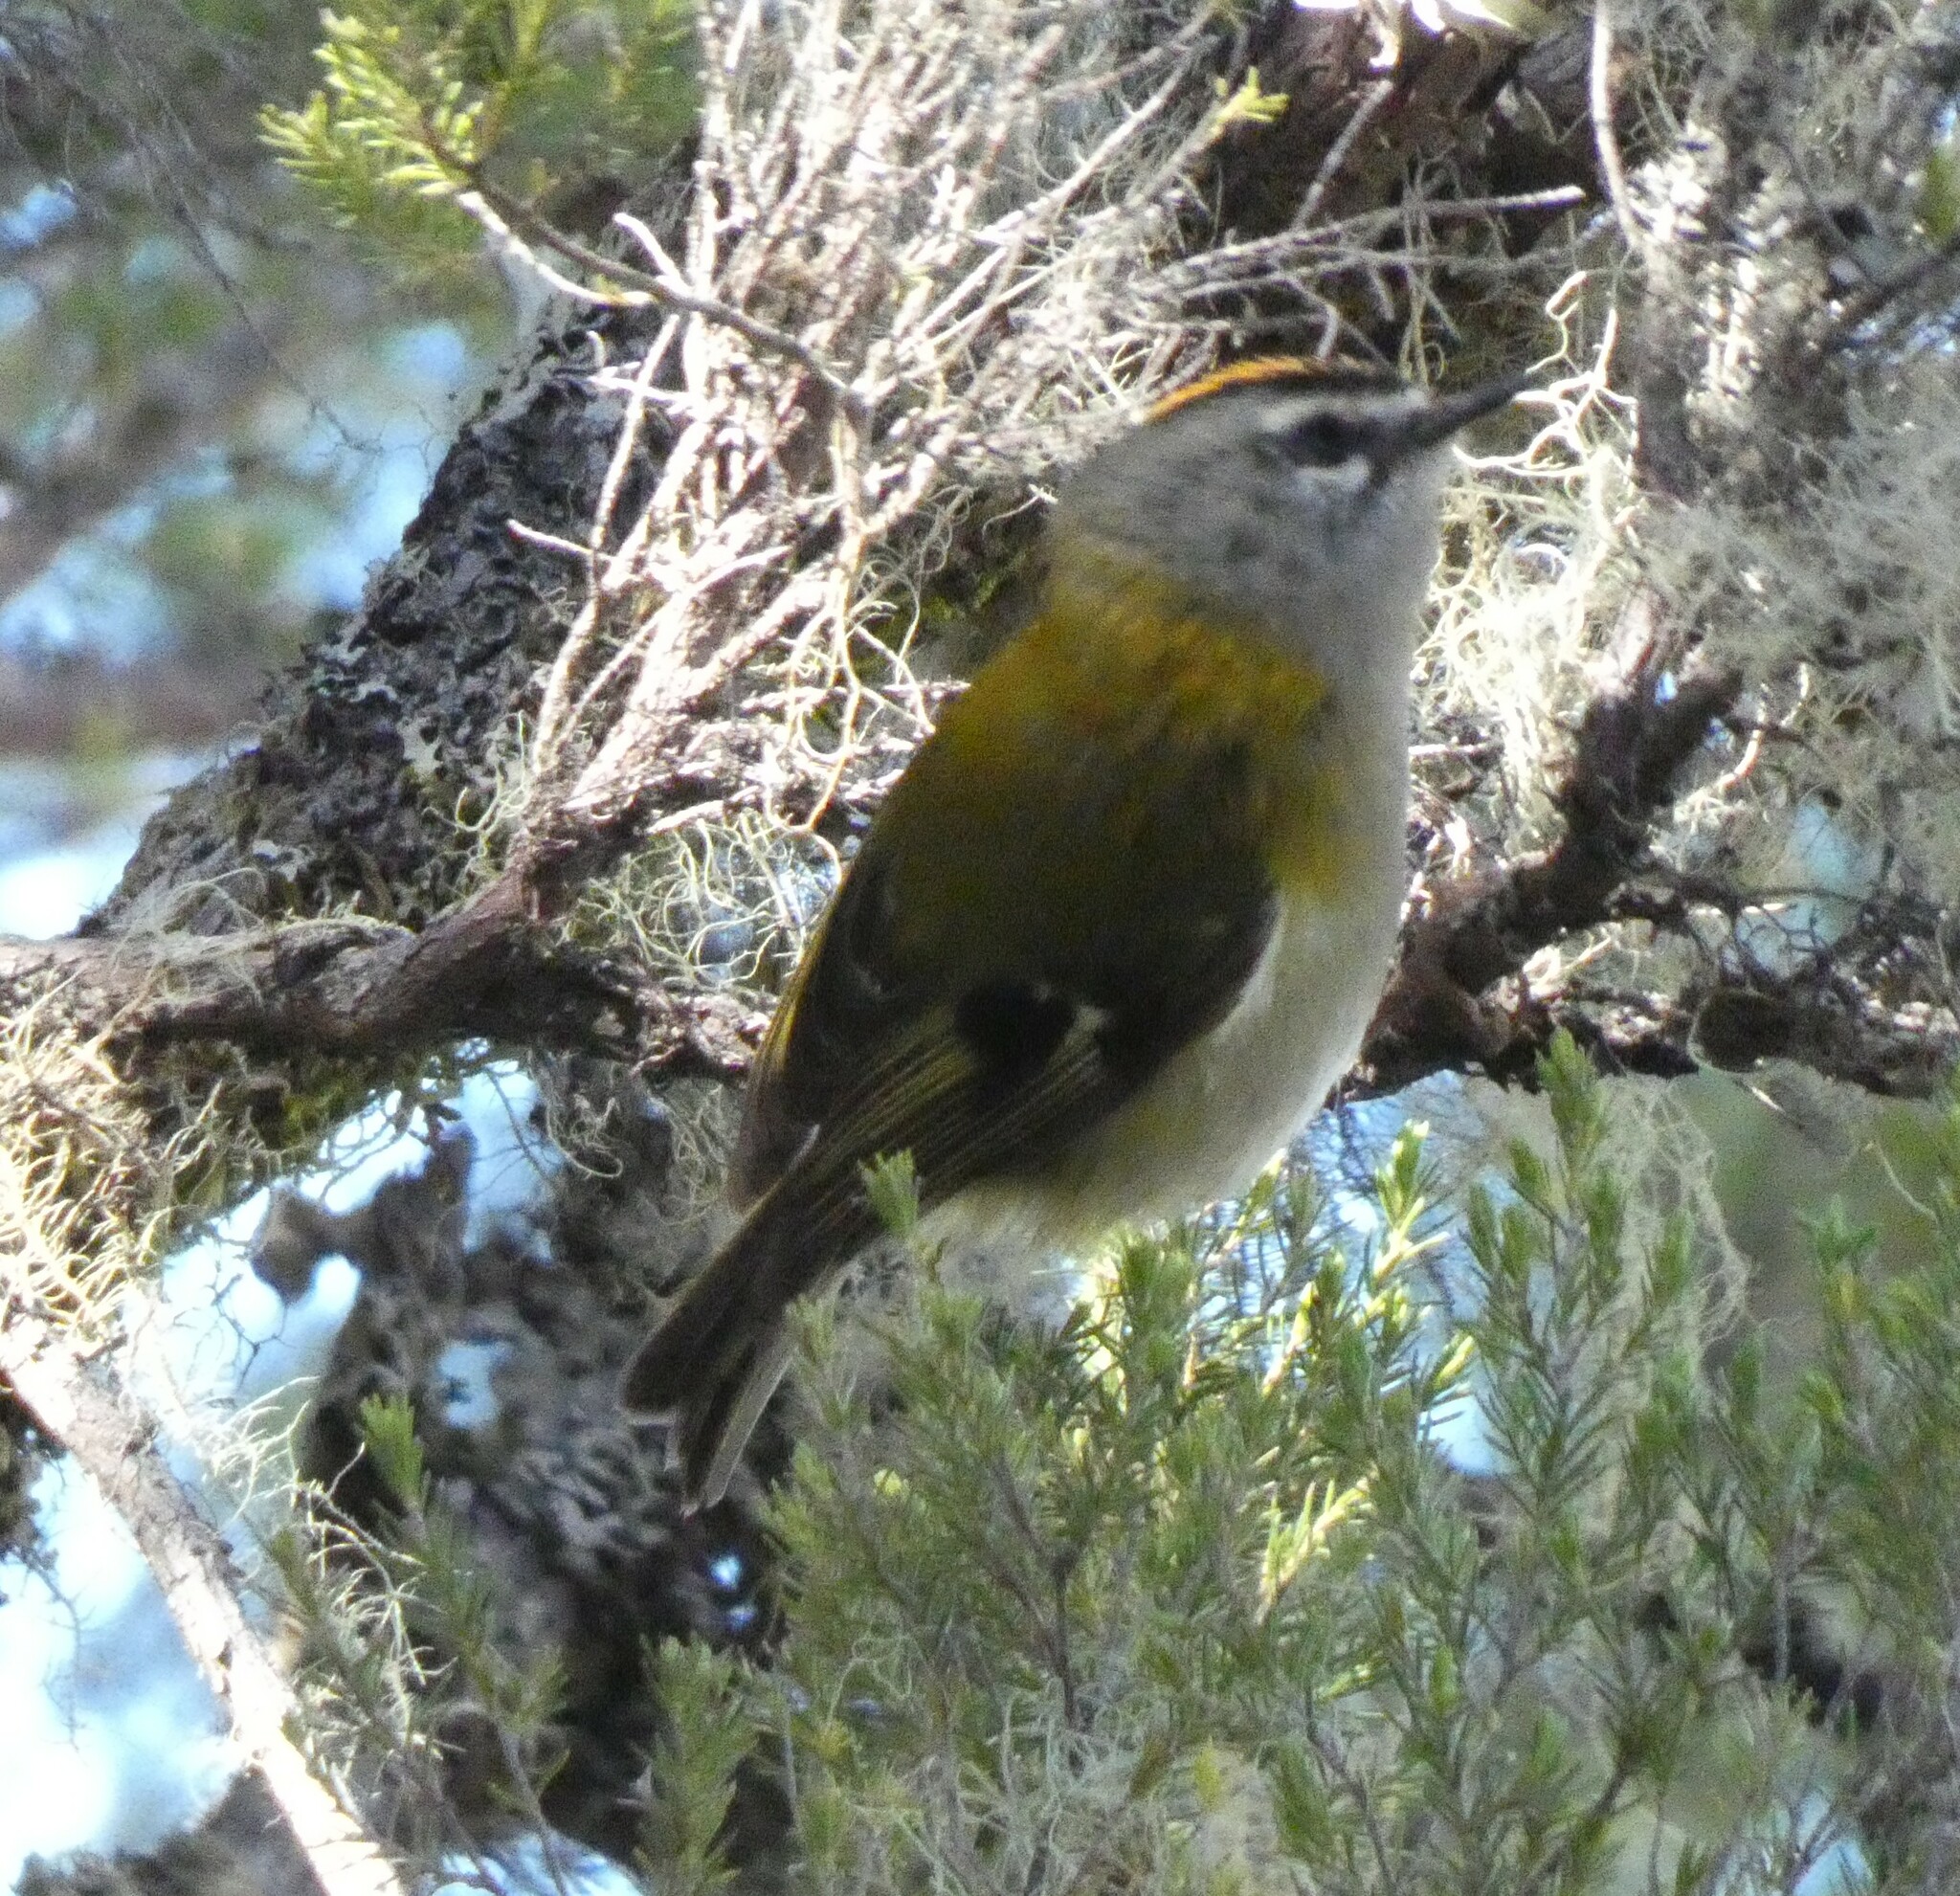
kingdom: Animalia
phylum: Chordata
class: Aves
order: Passeriformes
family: Regulidae
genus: Regulus
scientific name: Regulus madeirensis
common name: Madeira firecrest
